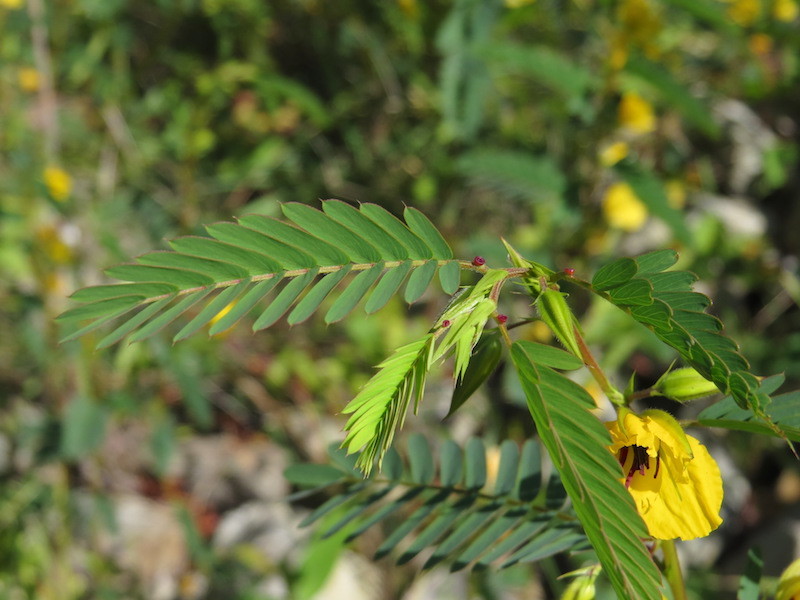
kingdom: Plantae
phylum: Tracheophyta
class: Magnoliopsida
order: Fabales
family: Fabaceae
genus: Chamaecrista
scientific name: Chamaecrista fasciculata
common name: Golden cassia
